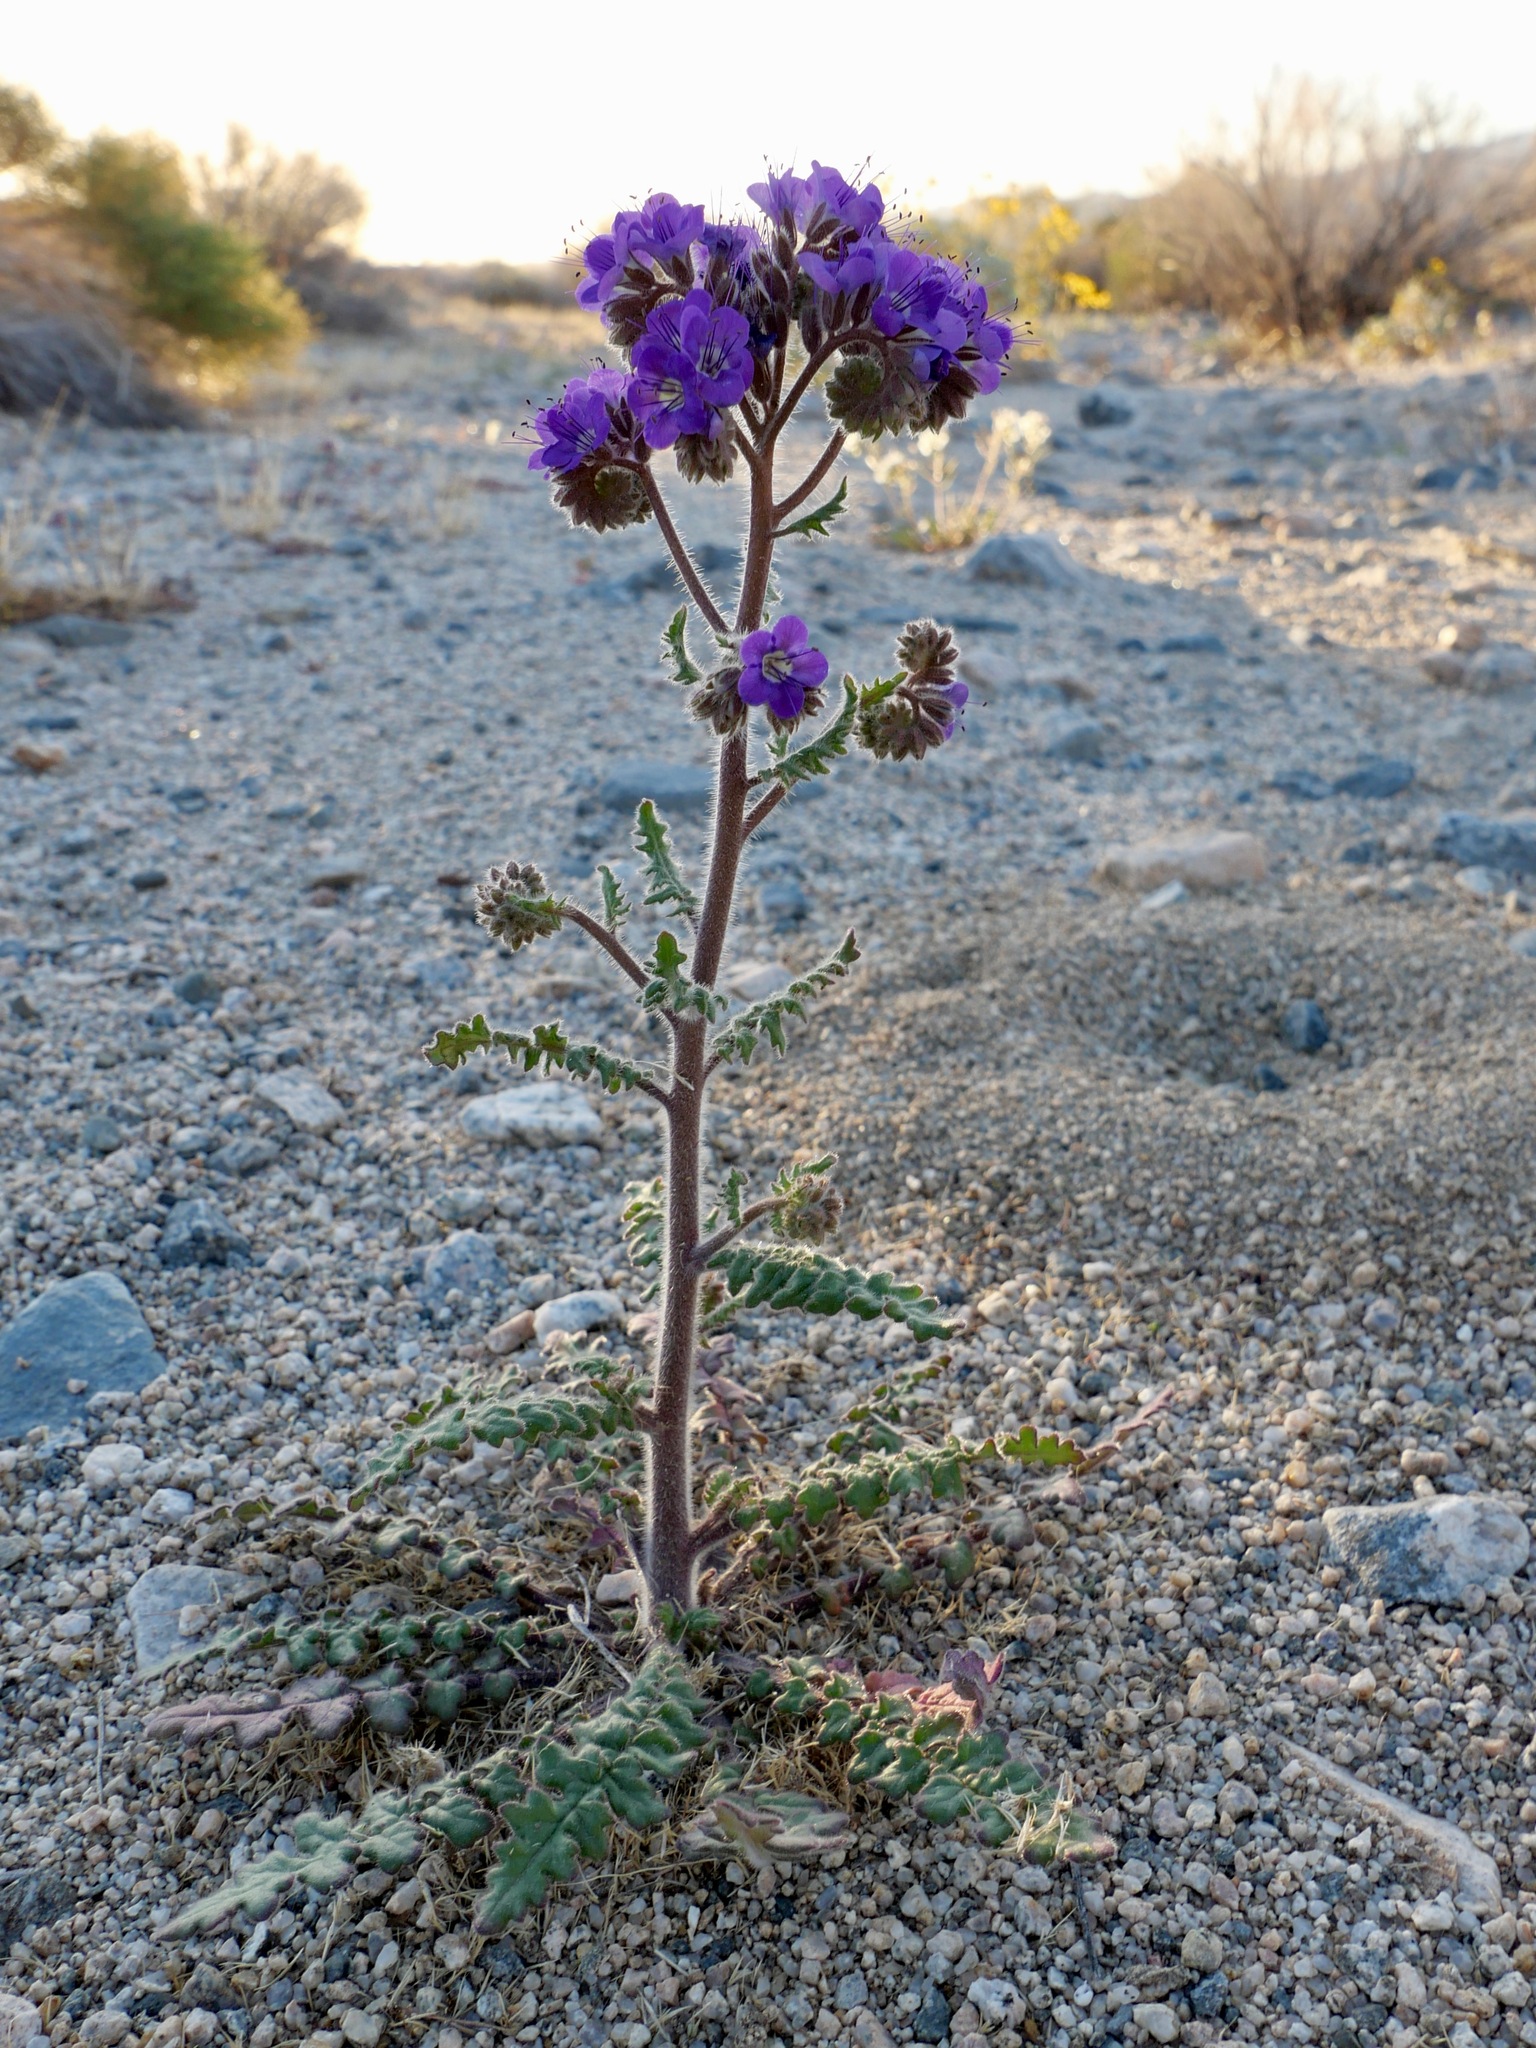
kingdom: Plantae
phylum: Tracheophyta
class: Magnoliopsida
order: Boraginales
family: Hydrophyllaceae
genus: Phacelia
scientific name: Phacelia crenulata
